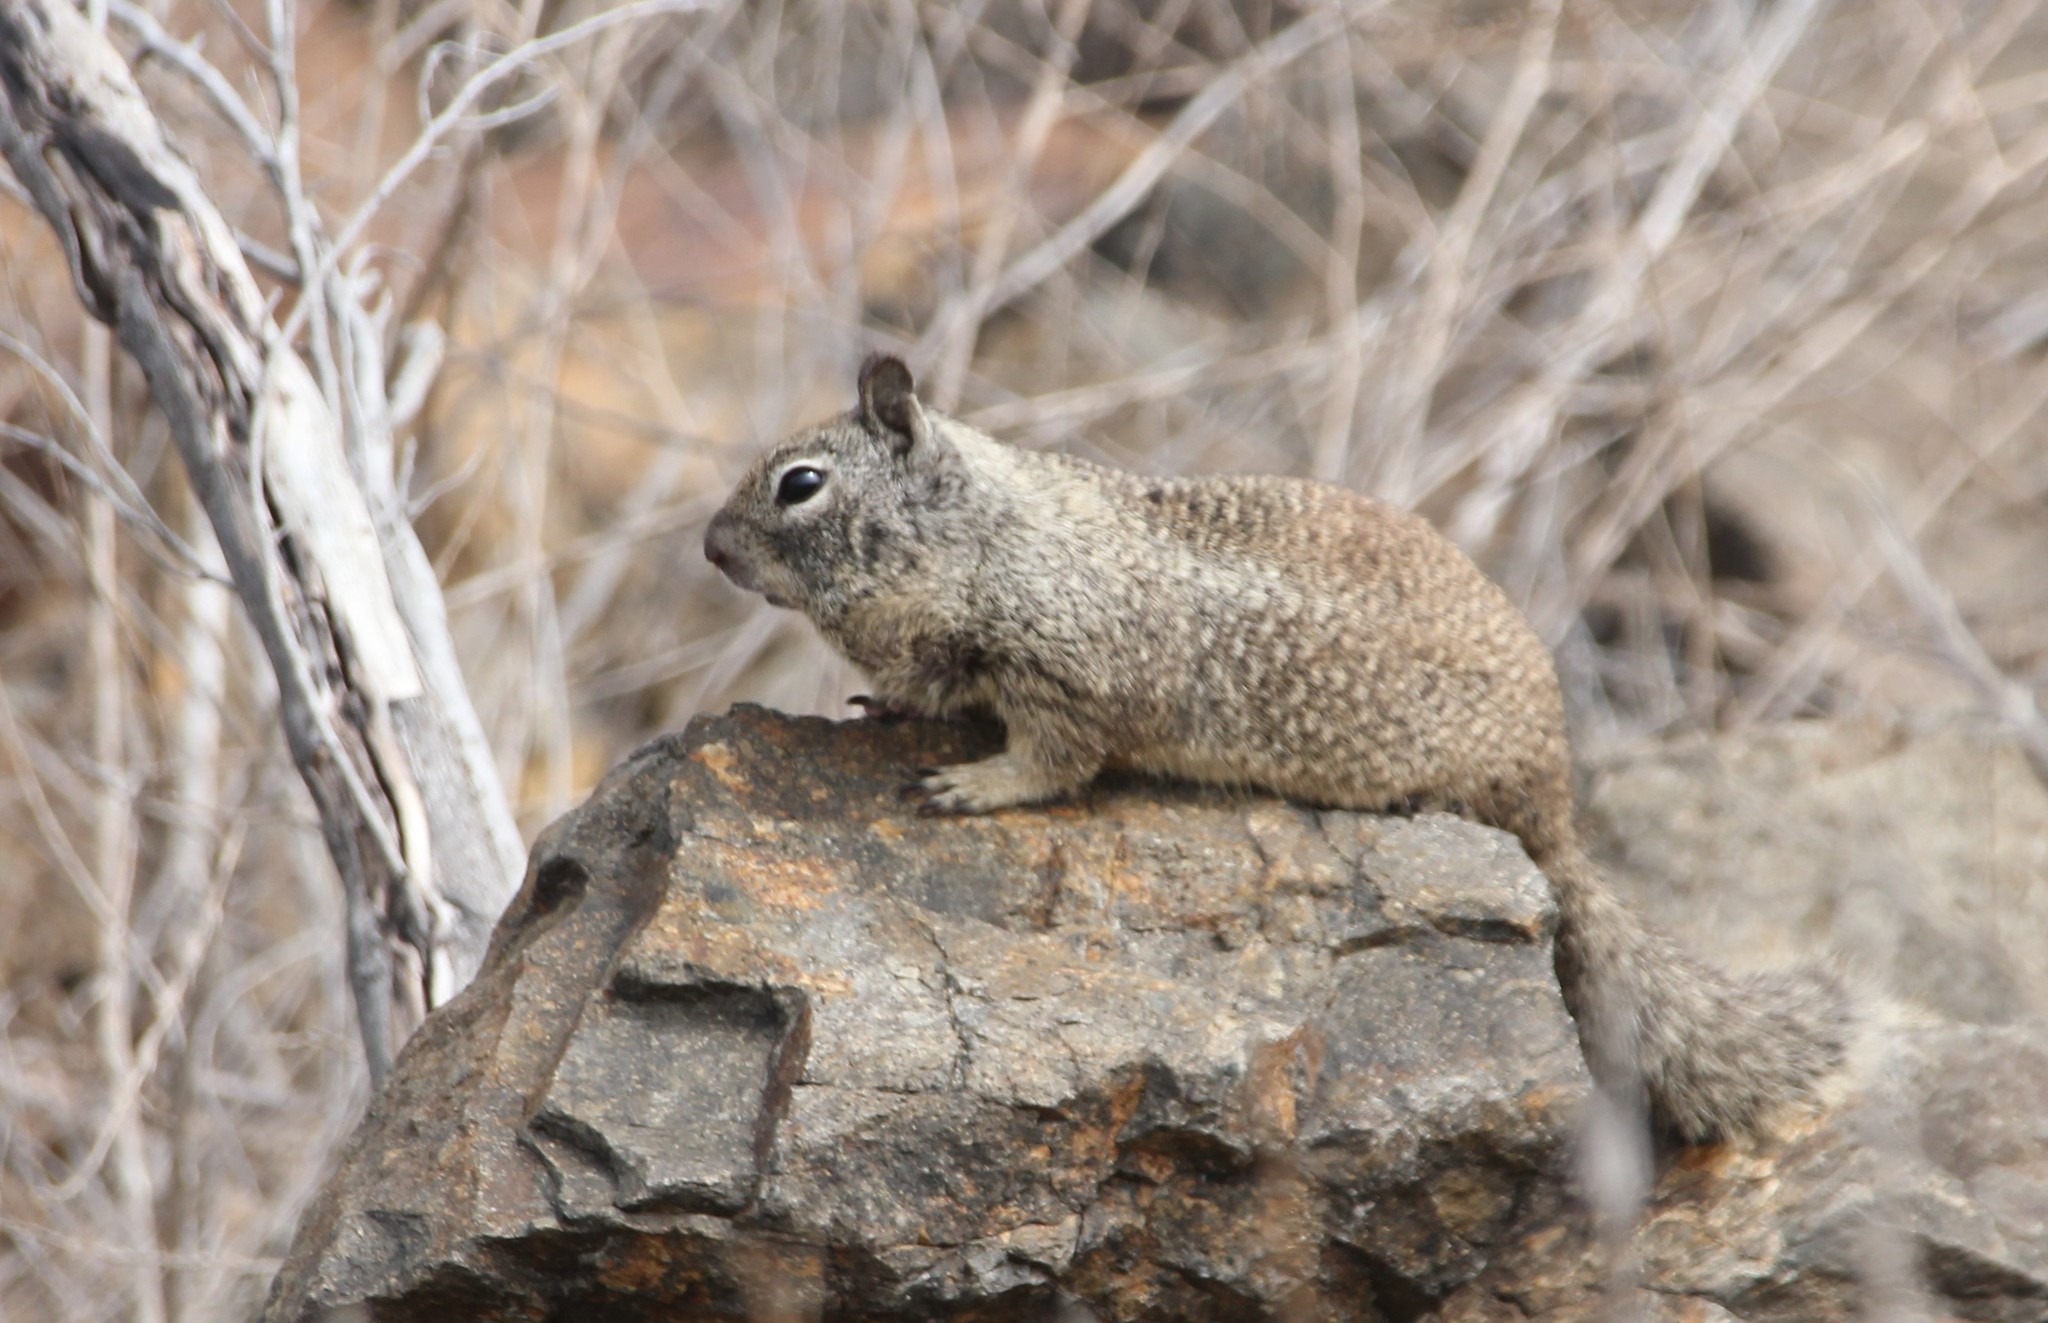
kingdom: Animalia
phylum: Chordata
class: Mammalia
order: Rodentia
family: Sciuridae
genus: Otospermophilus
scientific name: Otospermophilus beecheyi
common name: California ground squirrel
